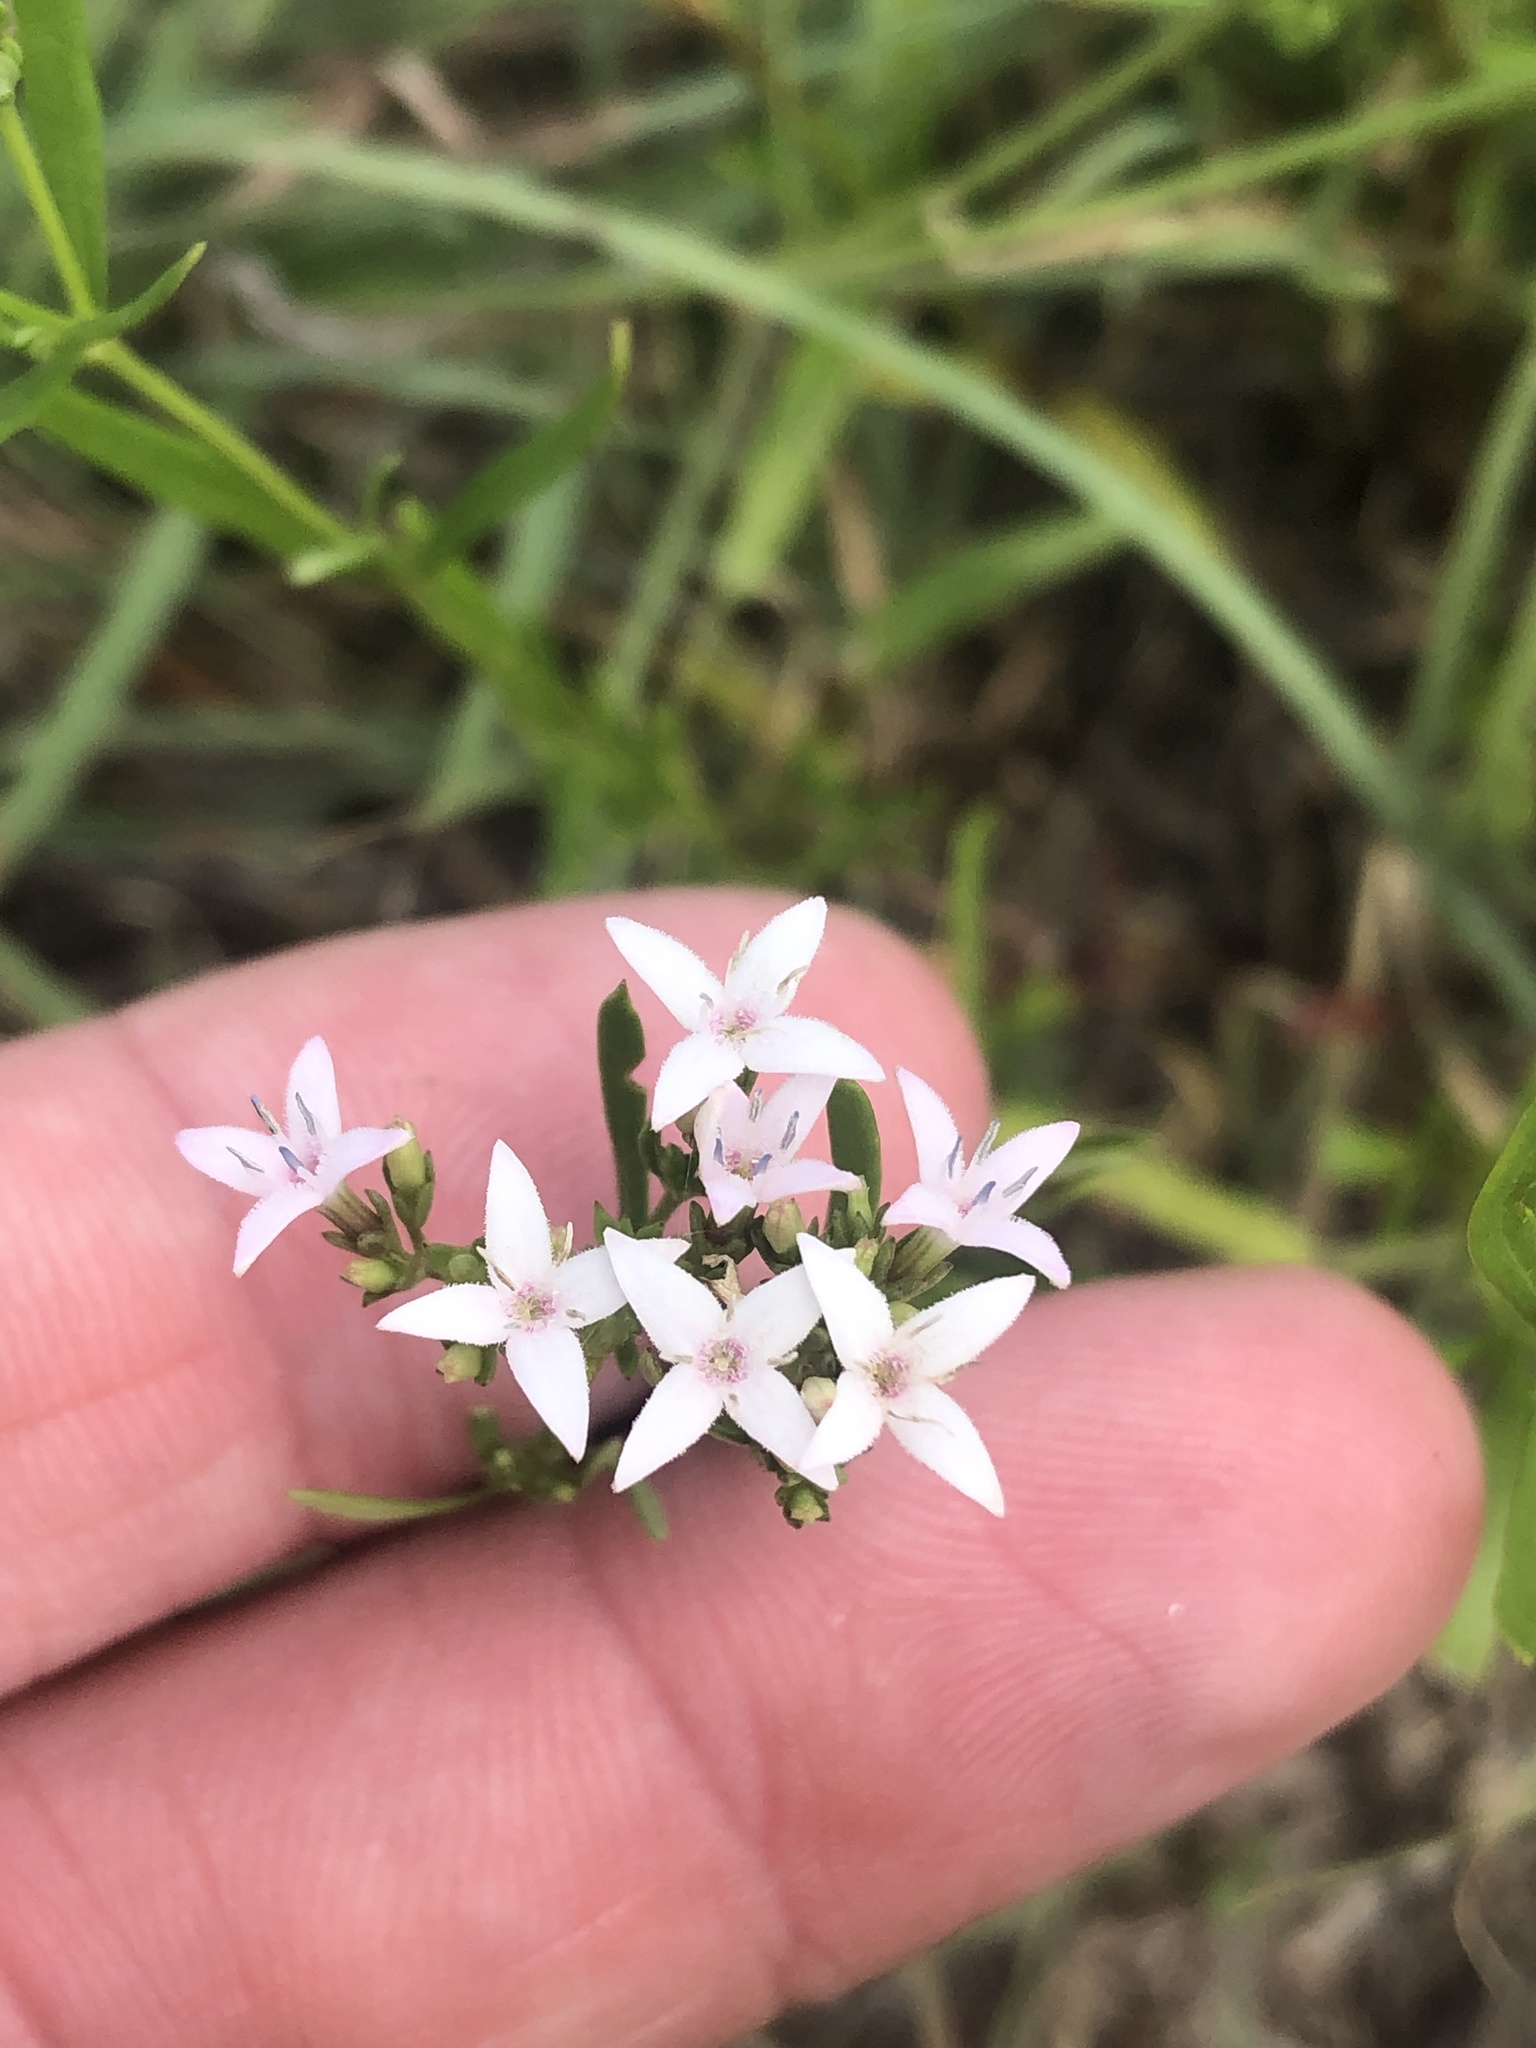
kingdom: Plantae
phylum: Tracheophyta
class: Magnoliopsida
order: Gentianales
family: Rubiaceae
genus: Stenaria
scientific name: Stenaria nigricans
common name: Diamondflowers
